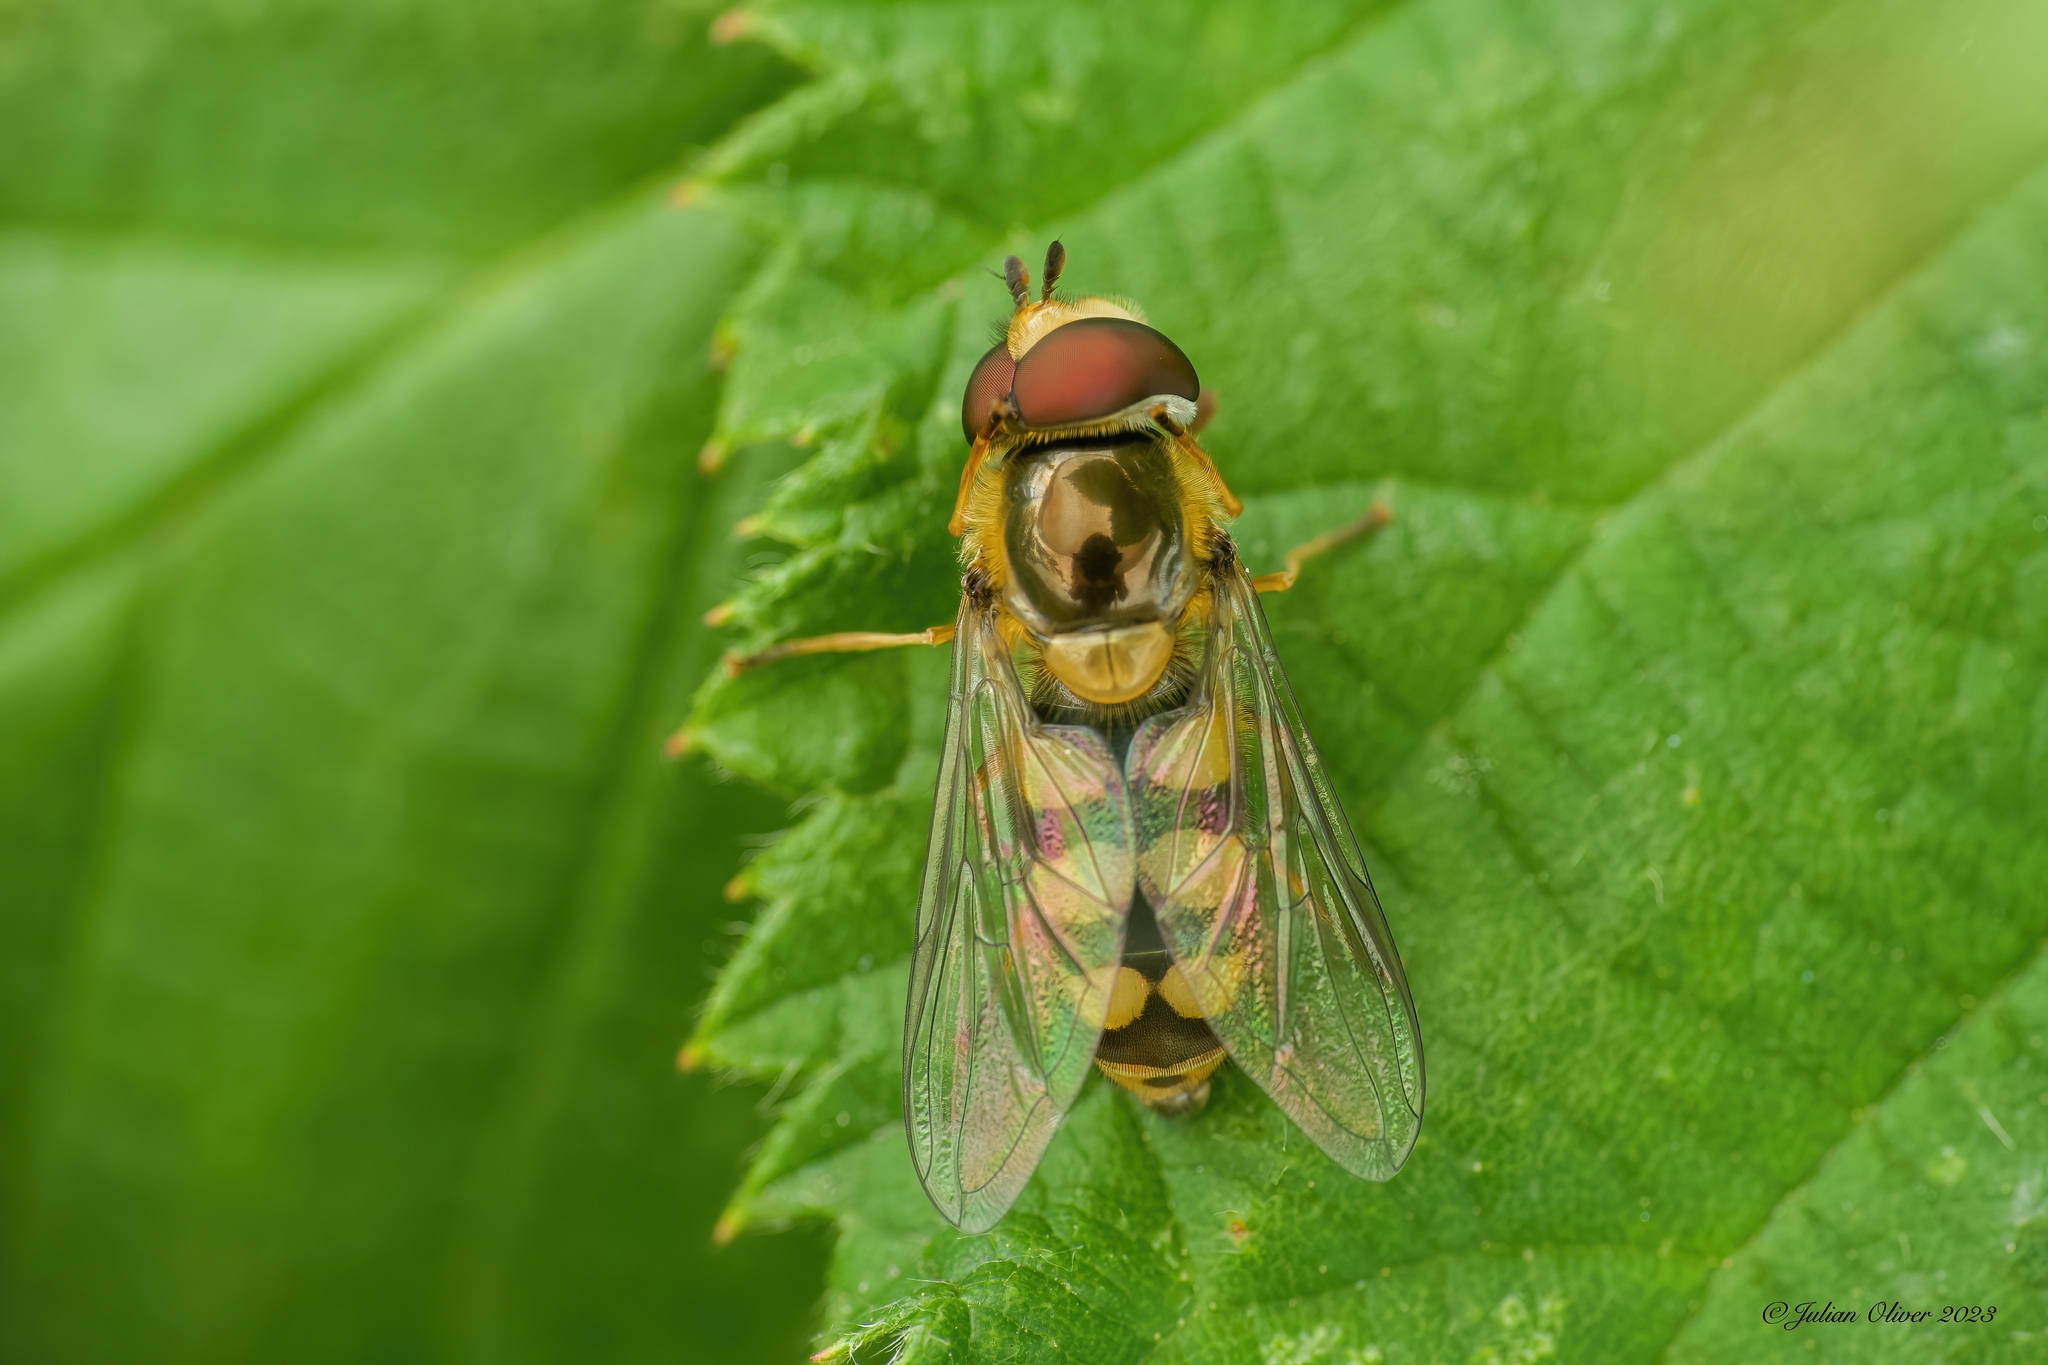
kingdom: Animalia
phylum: Arthropoda
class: Insecta
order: Diptera
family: Syrphidae
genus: Eupeodes
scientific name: Eupeodes
